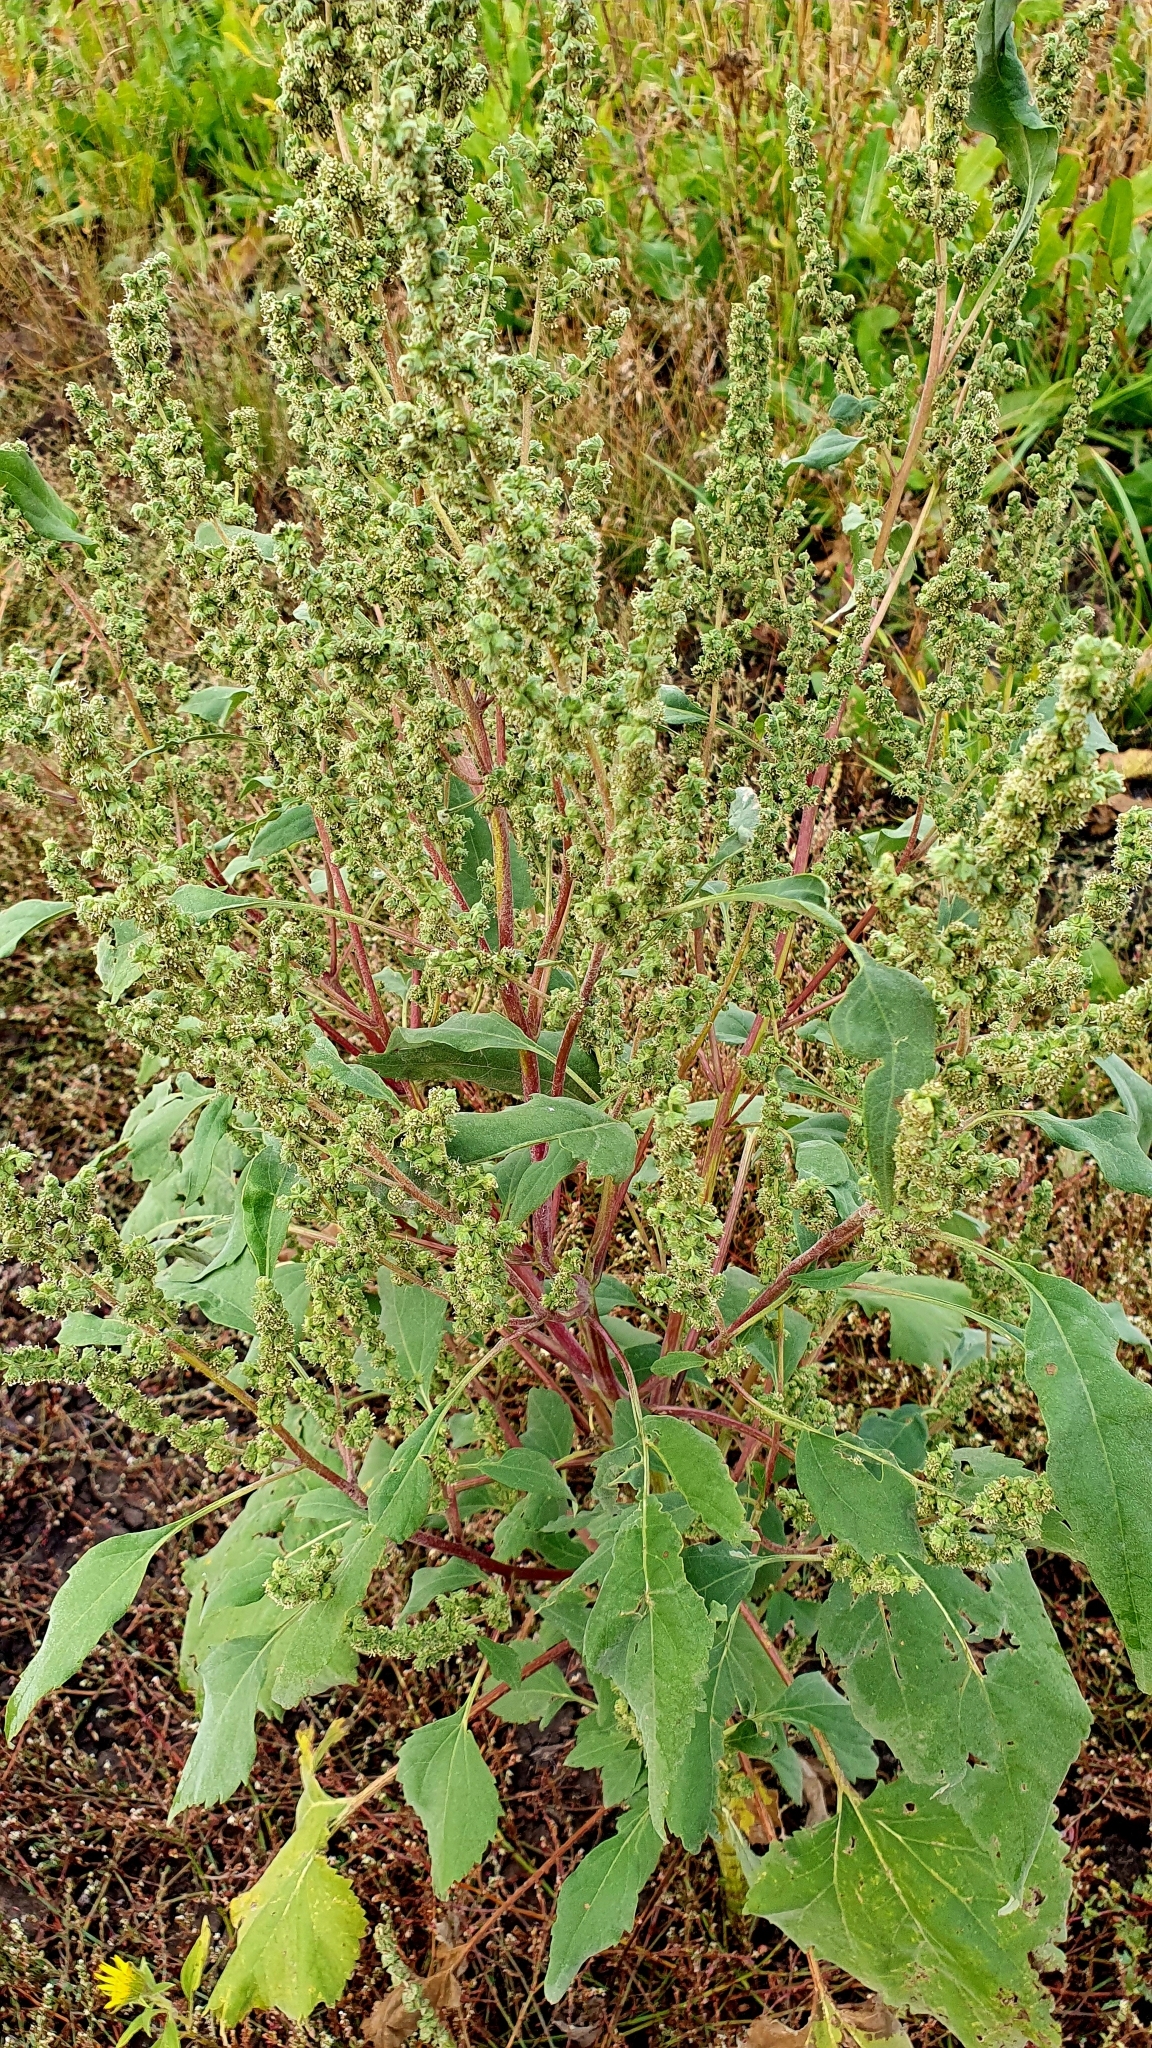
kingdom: Plantae
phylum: Tracheophyta
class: Magnoliopsida
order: Asterales
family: Asteraceae
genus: Cyclachaena
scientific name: Cyclachaena xanthiifolia
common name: Giant sumpweed
